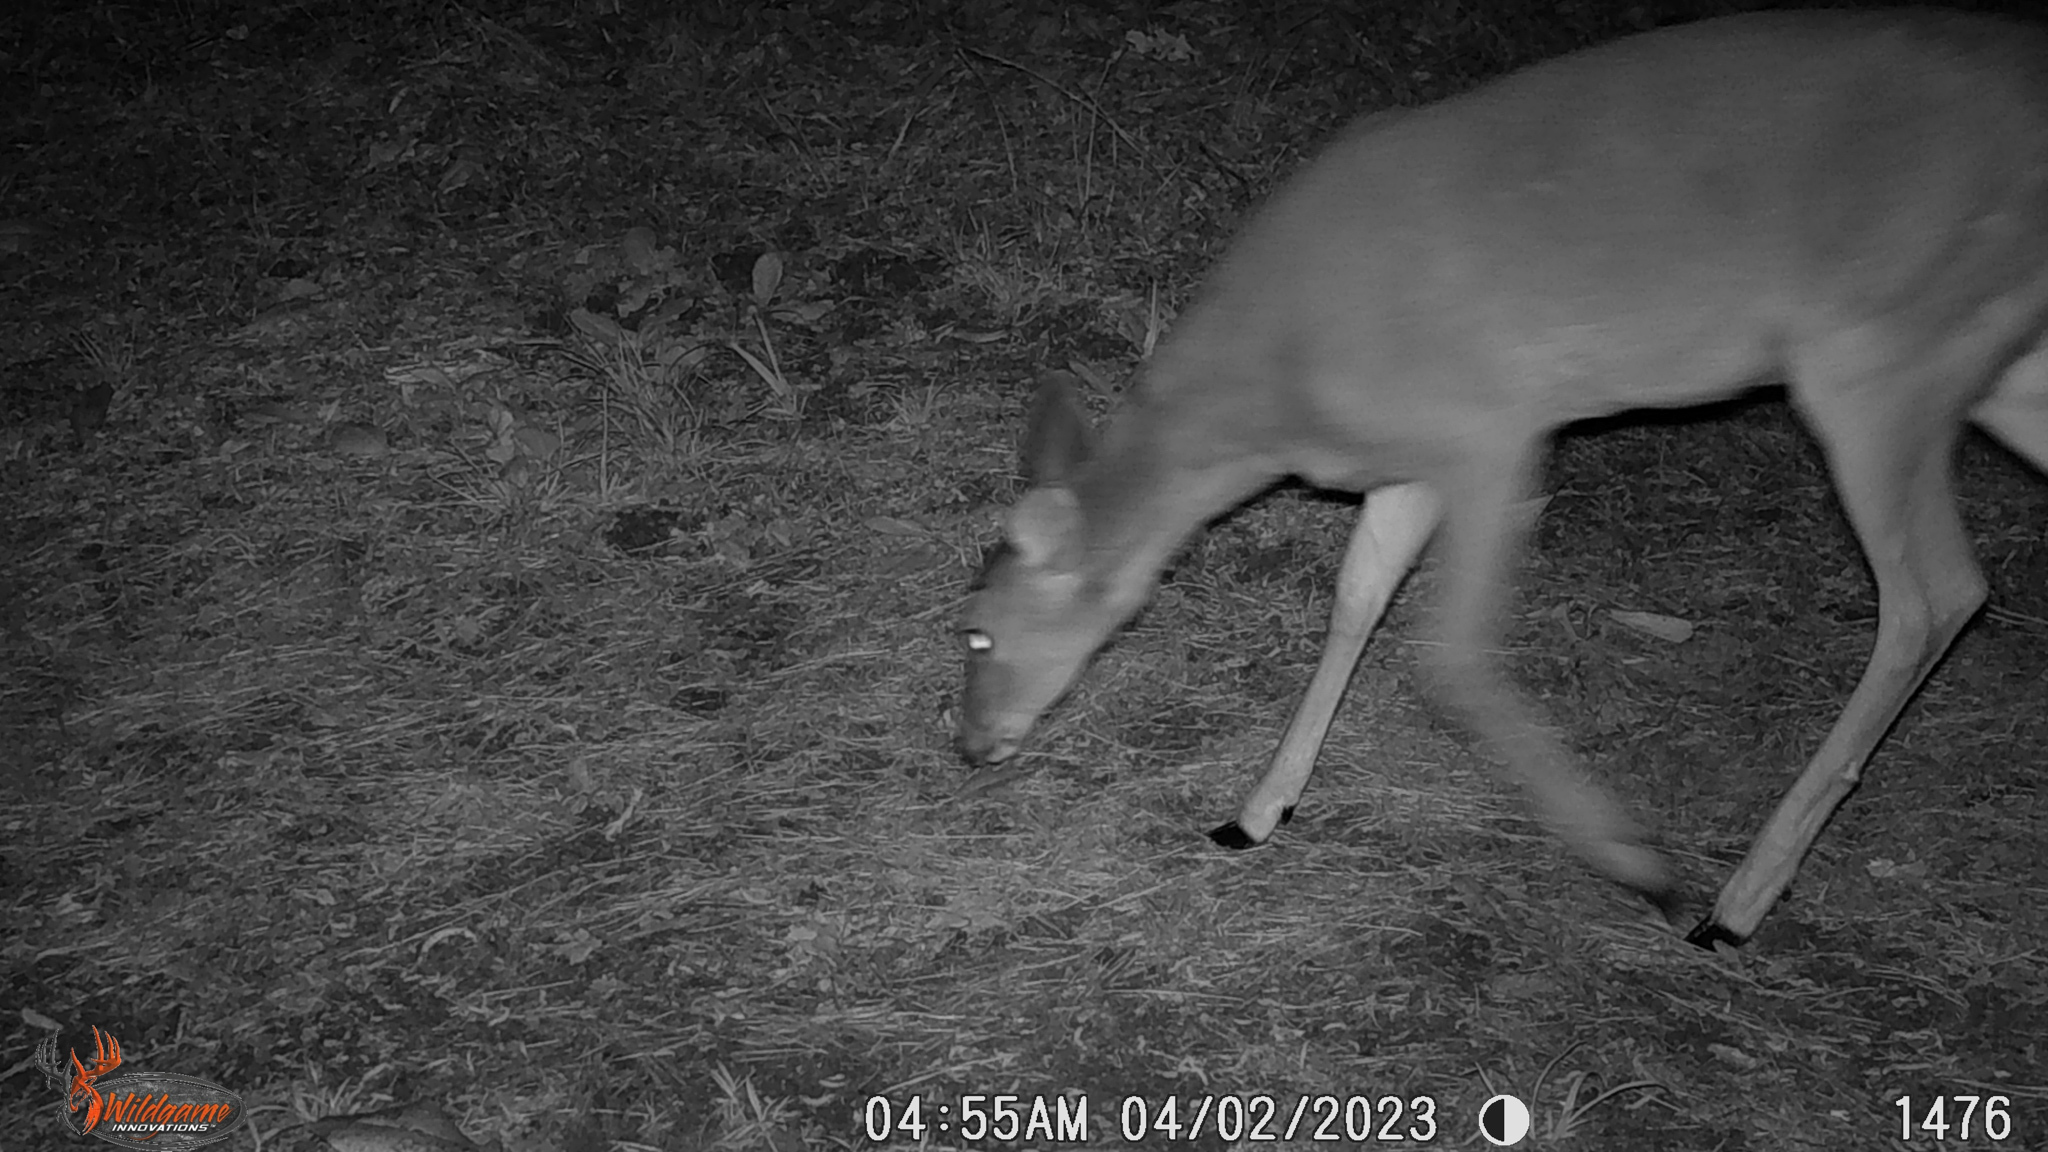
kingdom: Animalia
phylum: Chordata
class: Mammalia
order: Artiodactyla
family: Cervidae
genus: Odocoileus
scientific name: Odocoileus virginianus
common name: White-tailed deer
